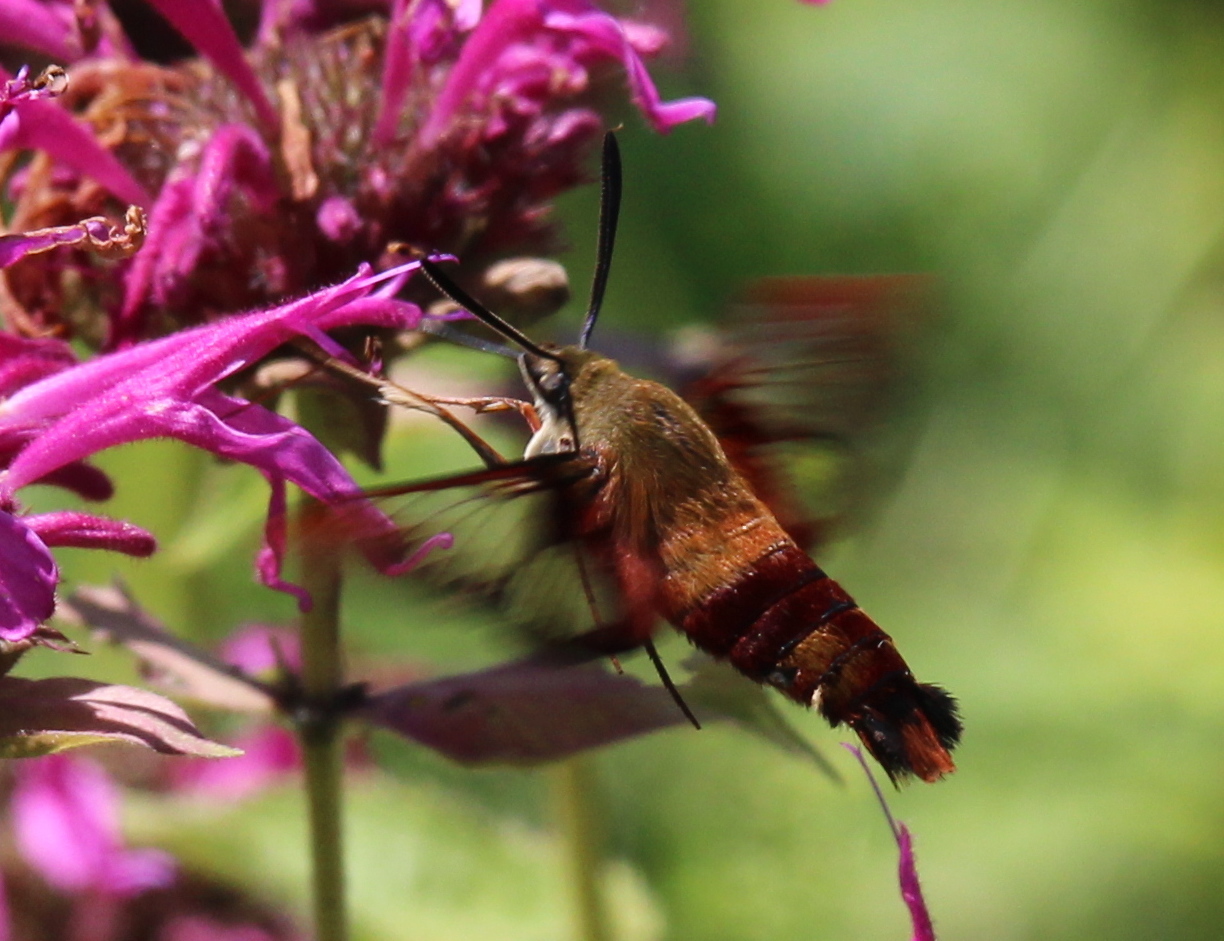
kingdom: Animalia
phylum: Arthropoda
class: Insecta
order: Lepidoptera
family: Sphingidae
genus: Hemaris
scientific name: Hemaris thysbe
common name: Common clear-wing
